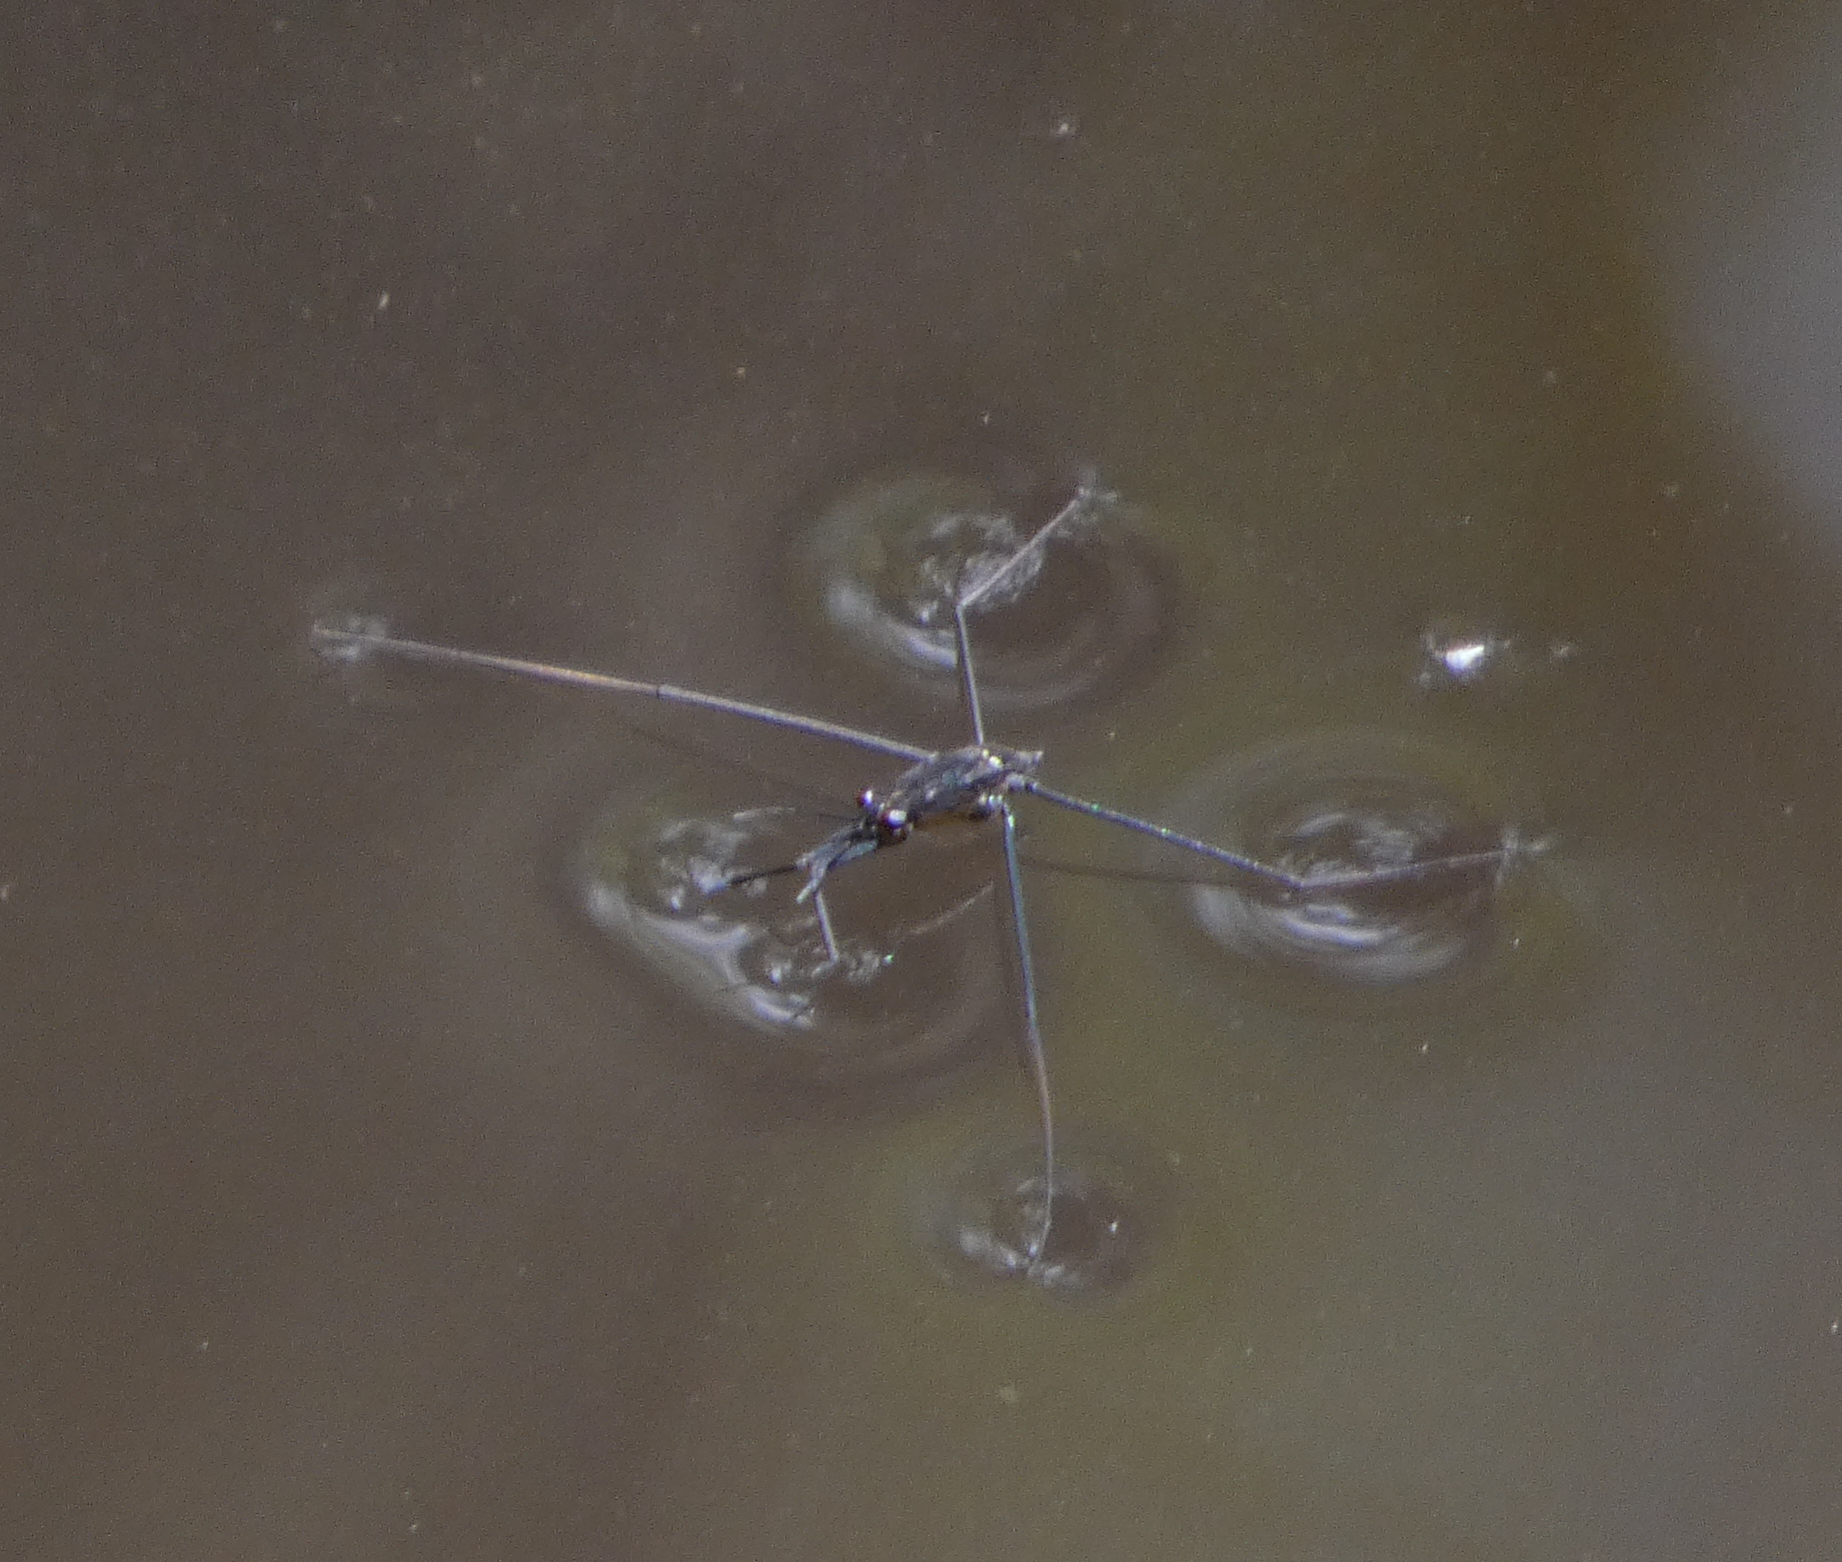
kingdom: Animalia
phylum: Arthropoda
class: Insecta
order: Hemiptera
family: Gerridae
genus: Aquarius
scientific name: Aquarius
